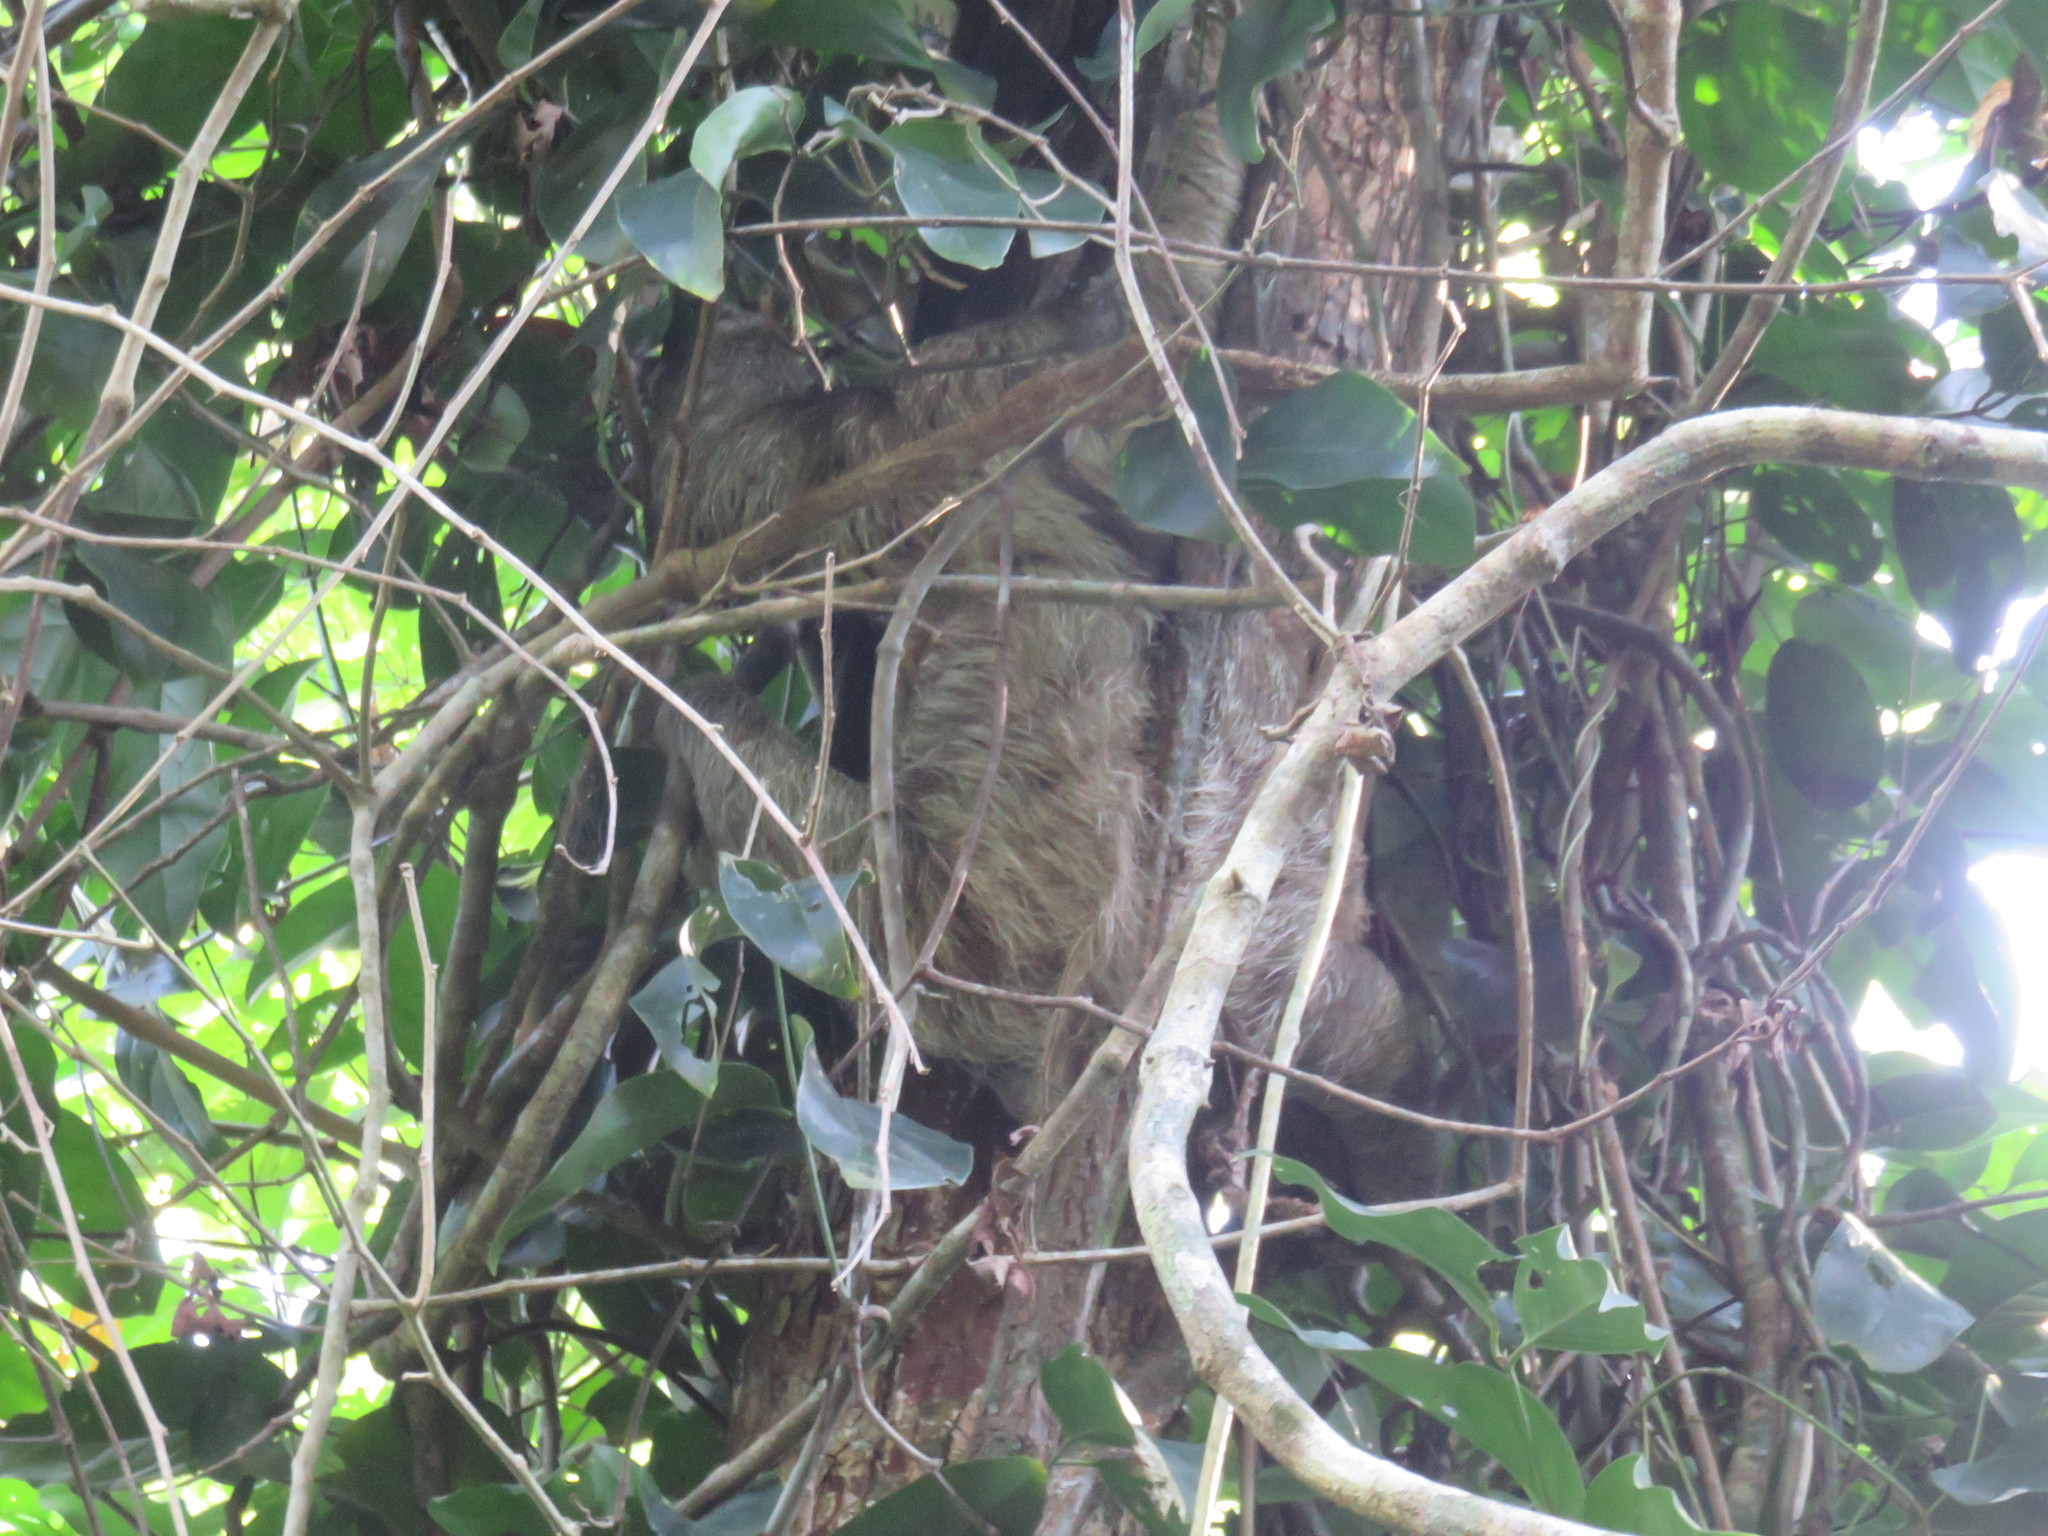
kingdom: Animalia
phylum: Chordata
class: Mammalia
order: Pilosa
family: Bradypodidae
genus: Bradypus
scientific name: Bradypus variegatus
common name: Brown-throated three-toed sloth
